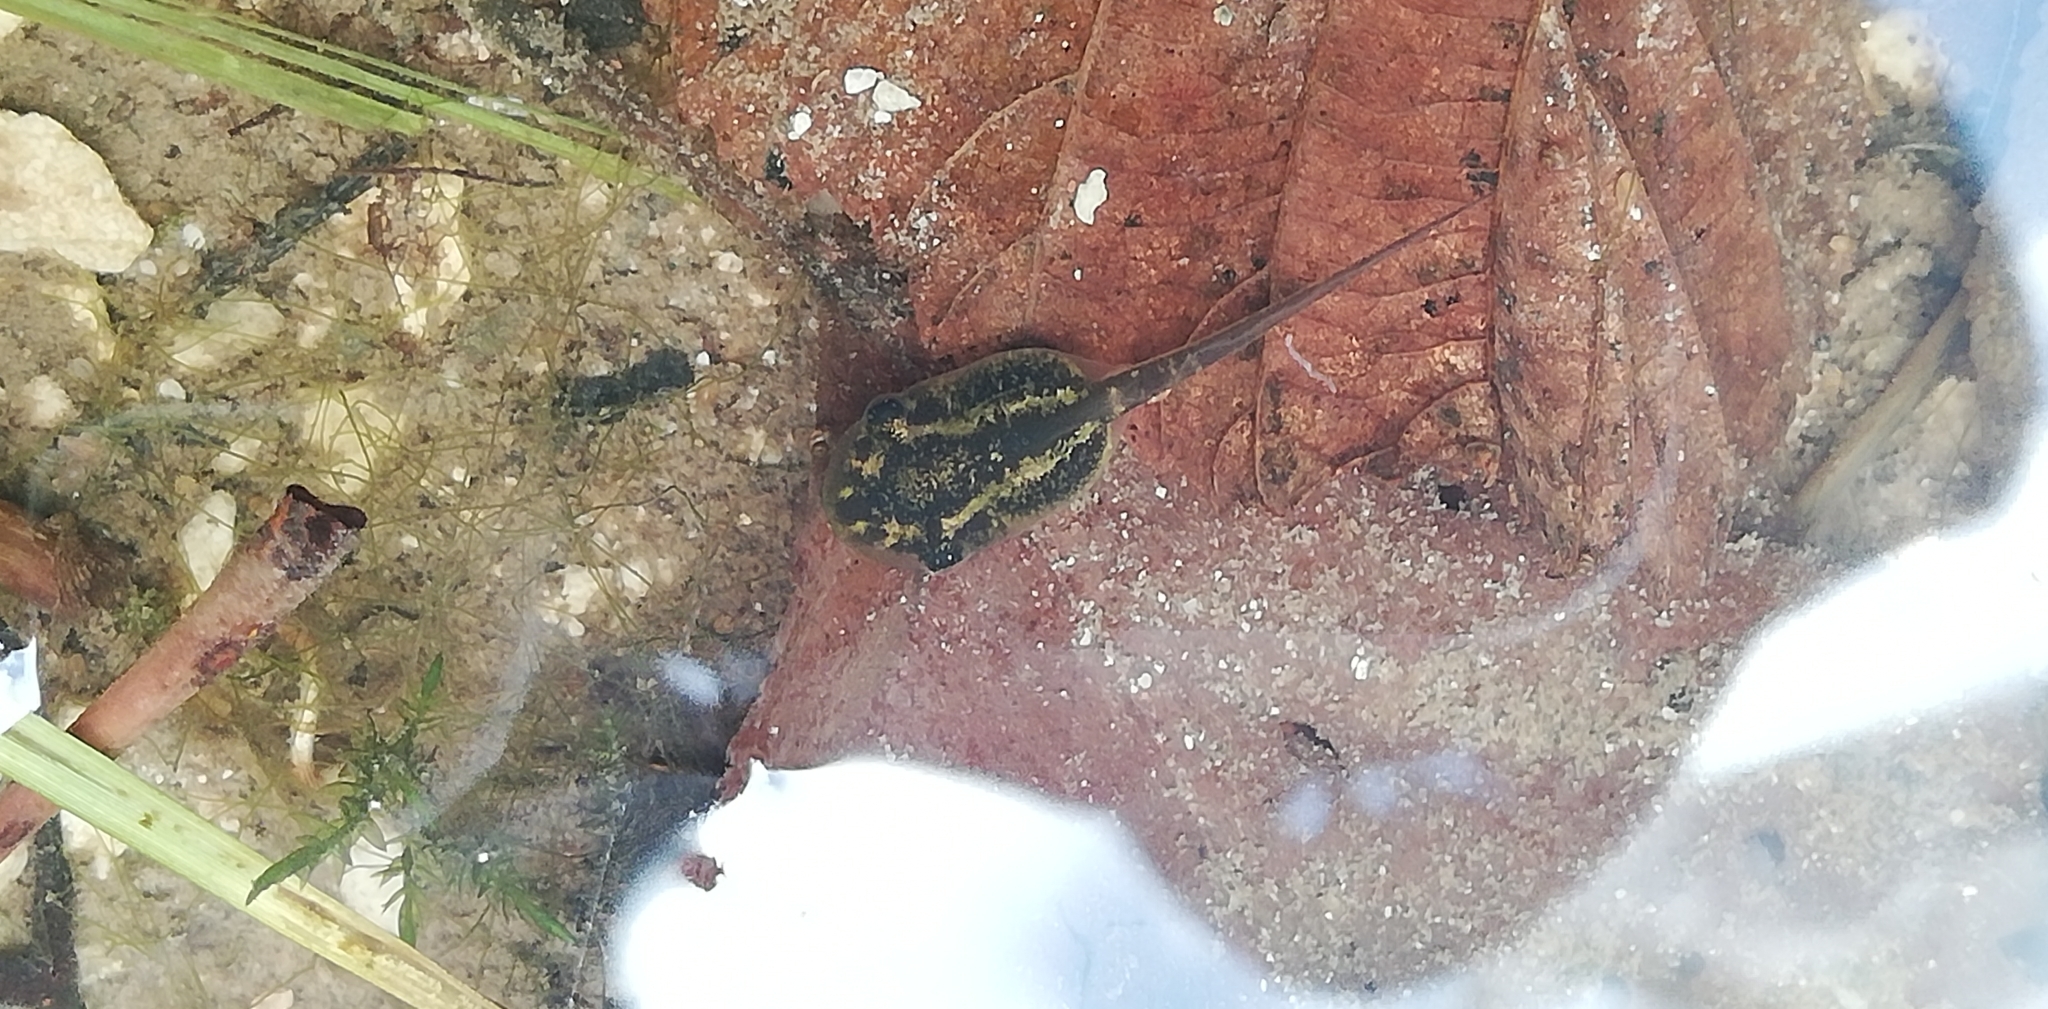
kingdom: Animalia
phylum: Chordata
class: Amphibia
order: Anura
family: Hylidae
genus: Hyla
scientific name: Hyla intermedia
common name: Italian tree frog
